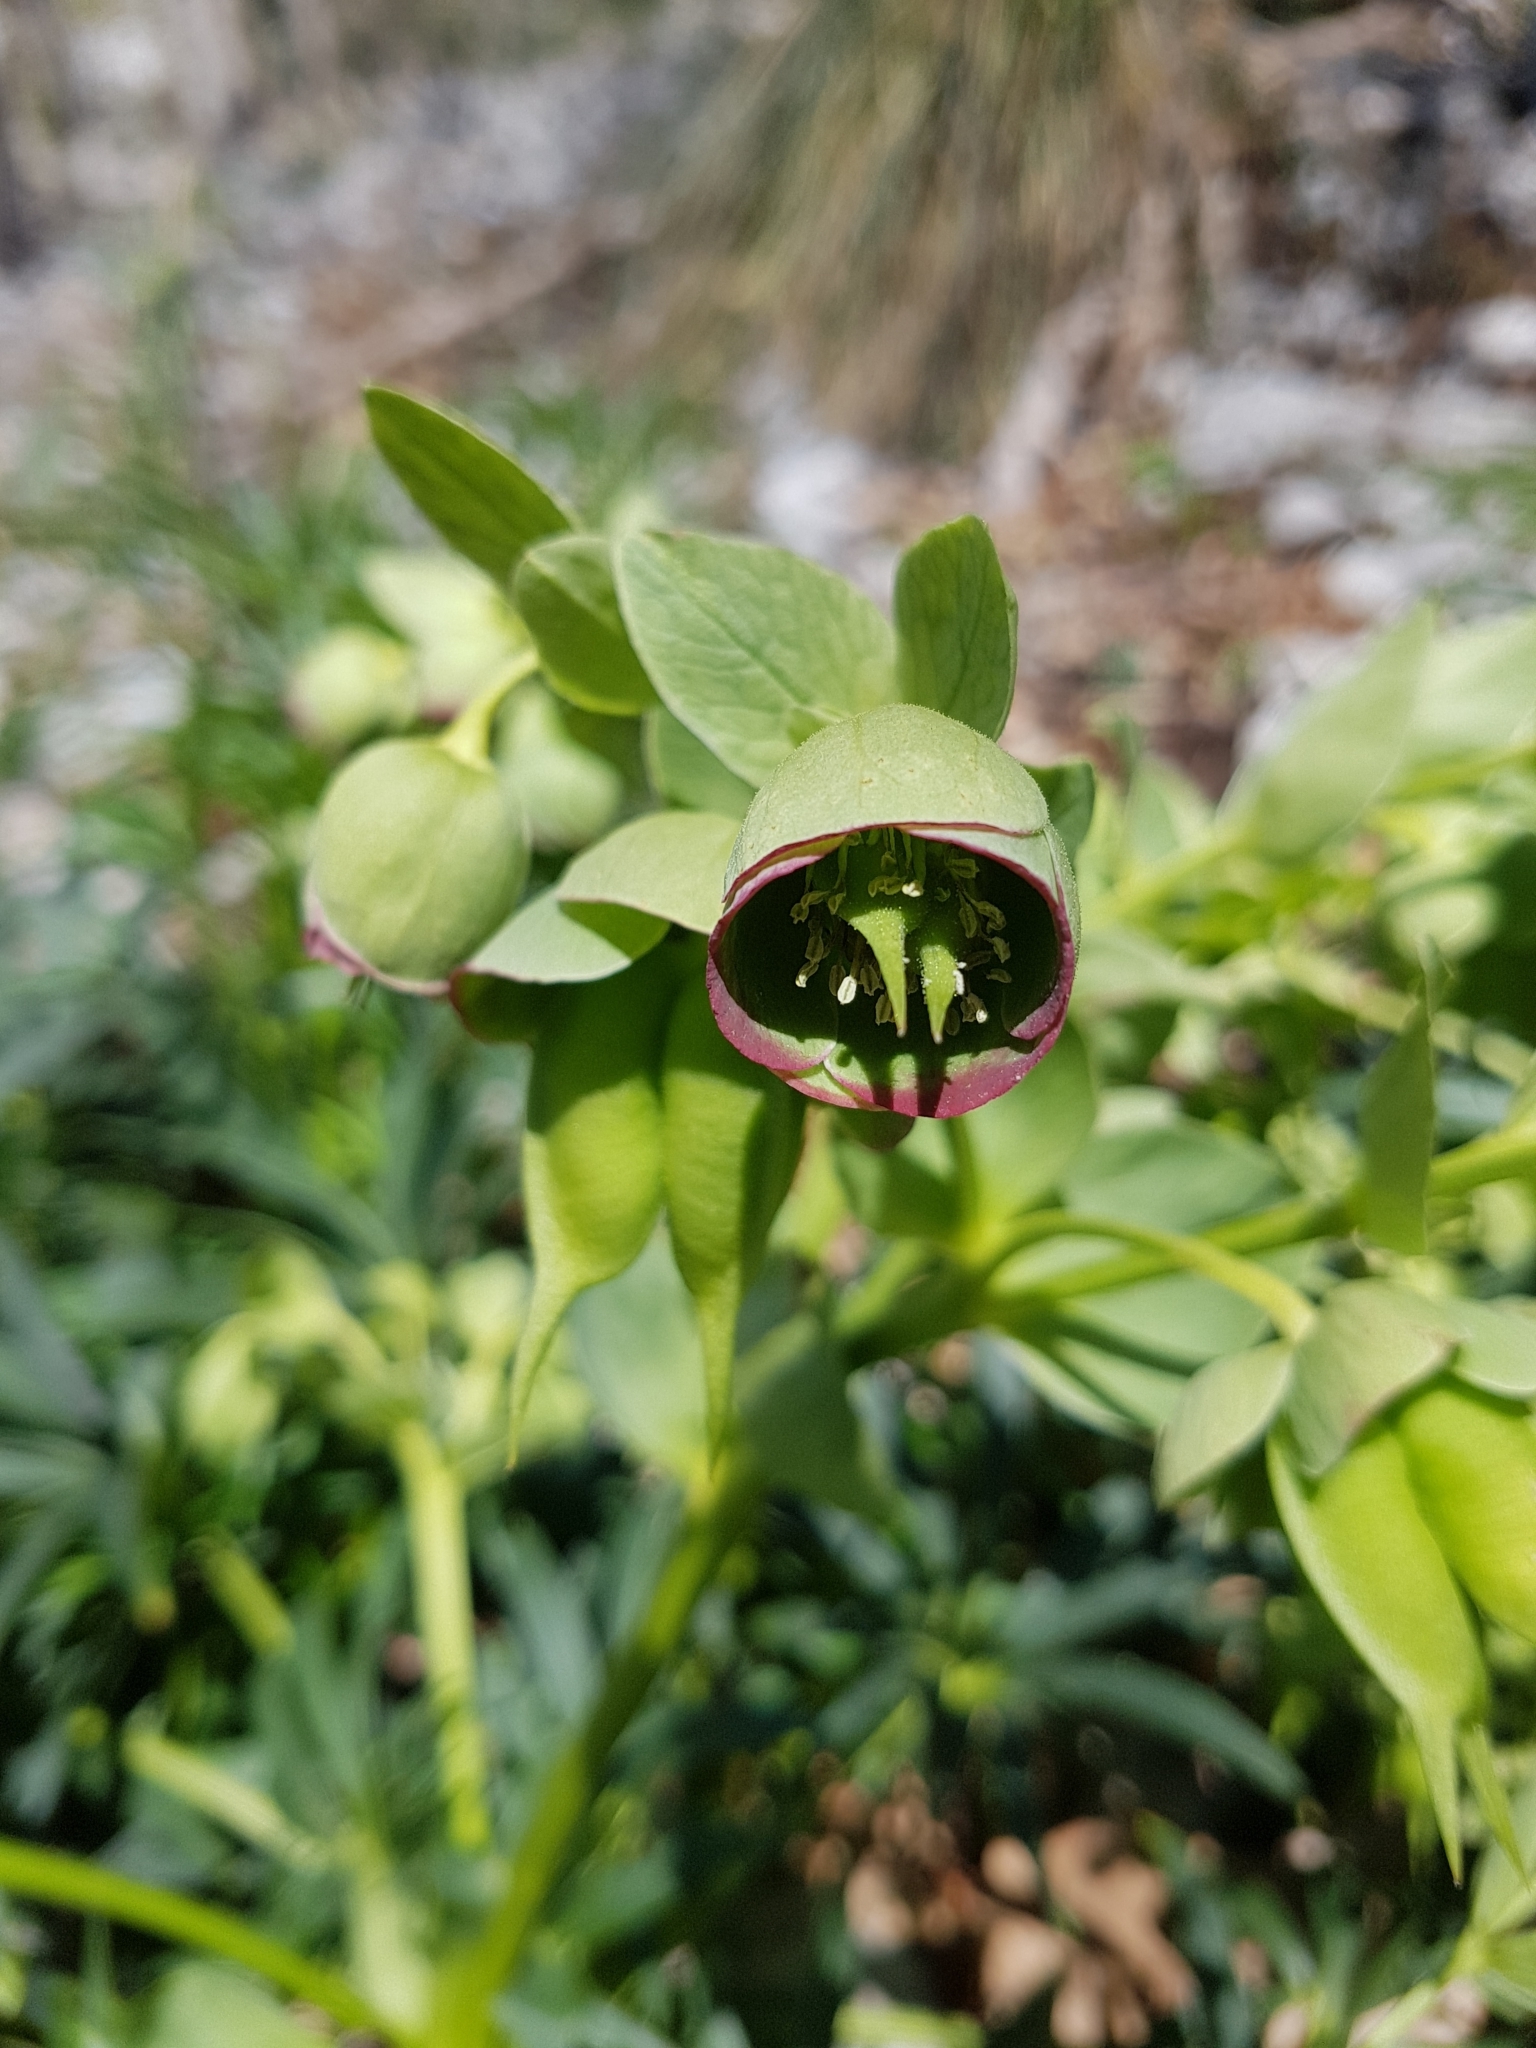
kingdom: Plantae
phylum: Tracheophyta
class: Magnoliopsida
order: Ranunculales
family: Ranunculaceae
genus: Helleborus
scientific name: Helleborus foetidus
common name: Stinking hellebore
